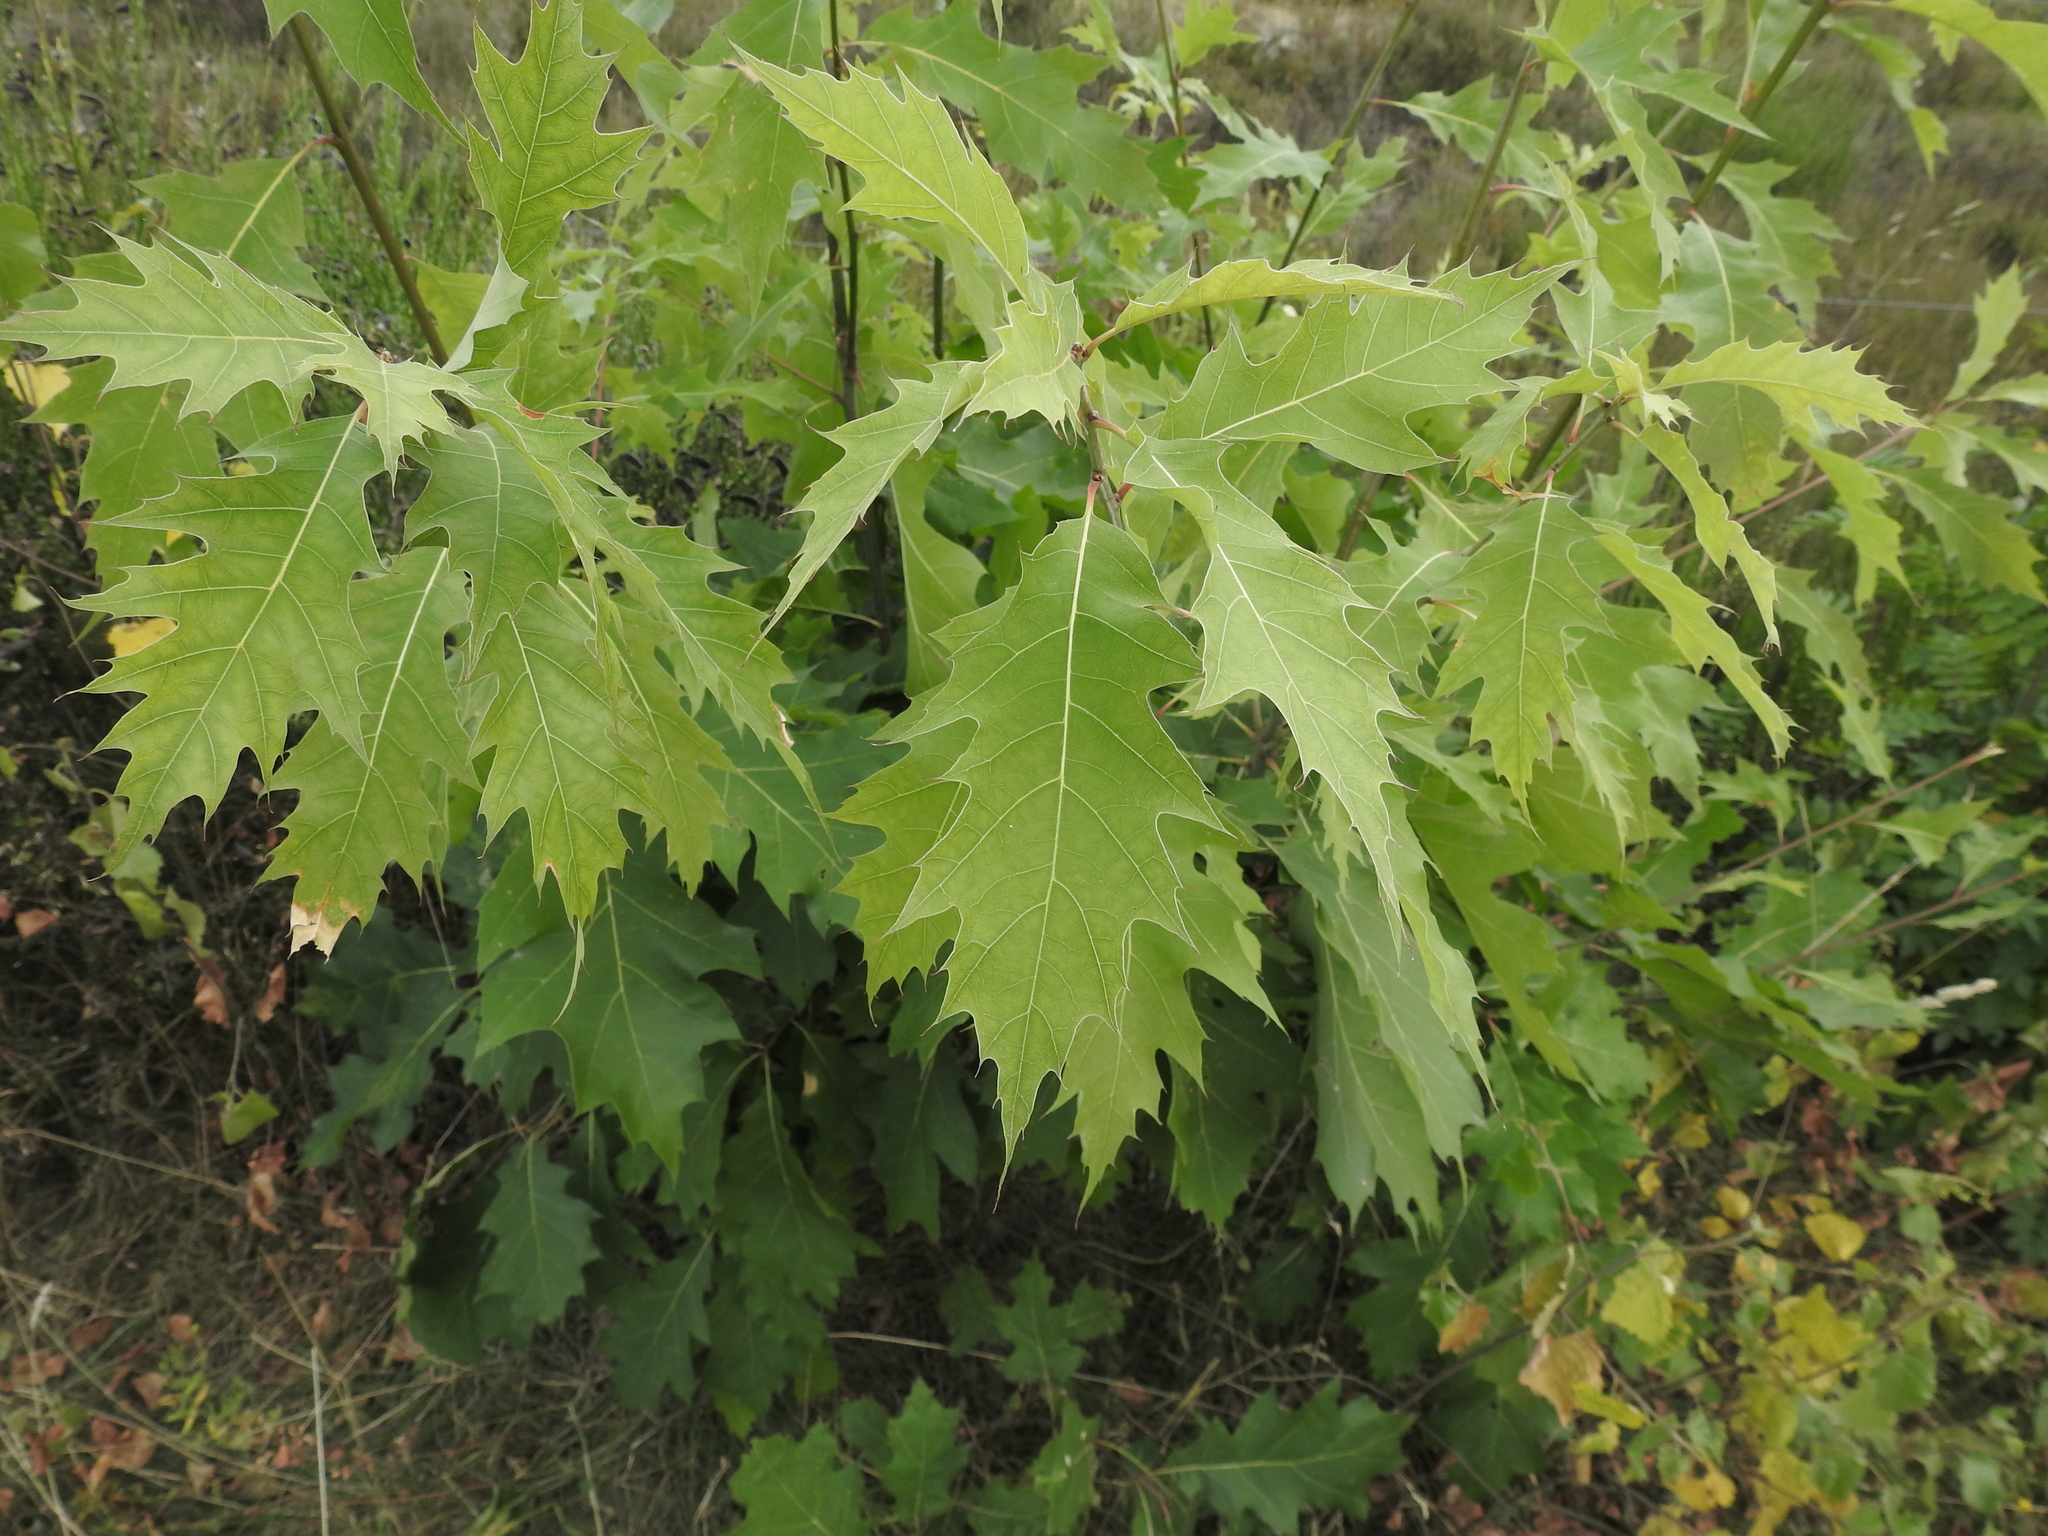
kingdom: Plantae
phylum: Tracheophyta
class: Magnoliopsida
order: Fagales
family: Fagaceae
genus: Quercus
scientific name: Quercus rubra
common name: Red oak
